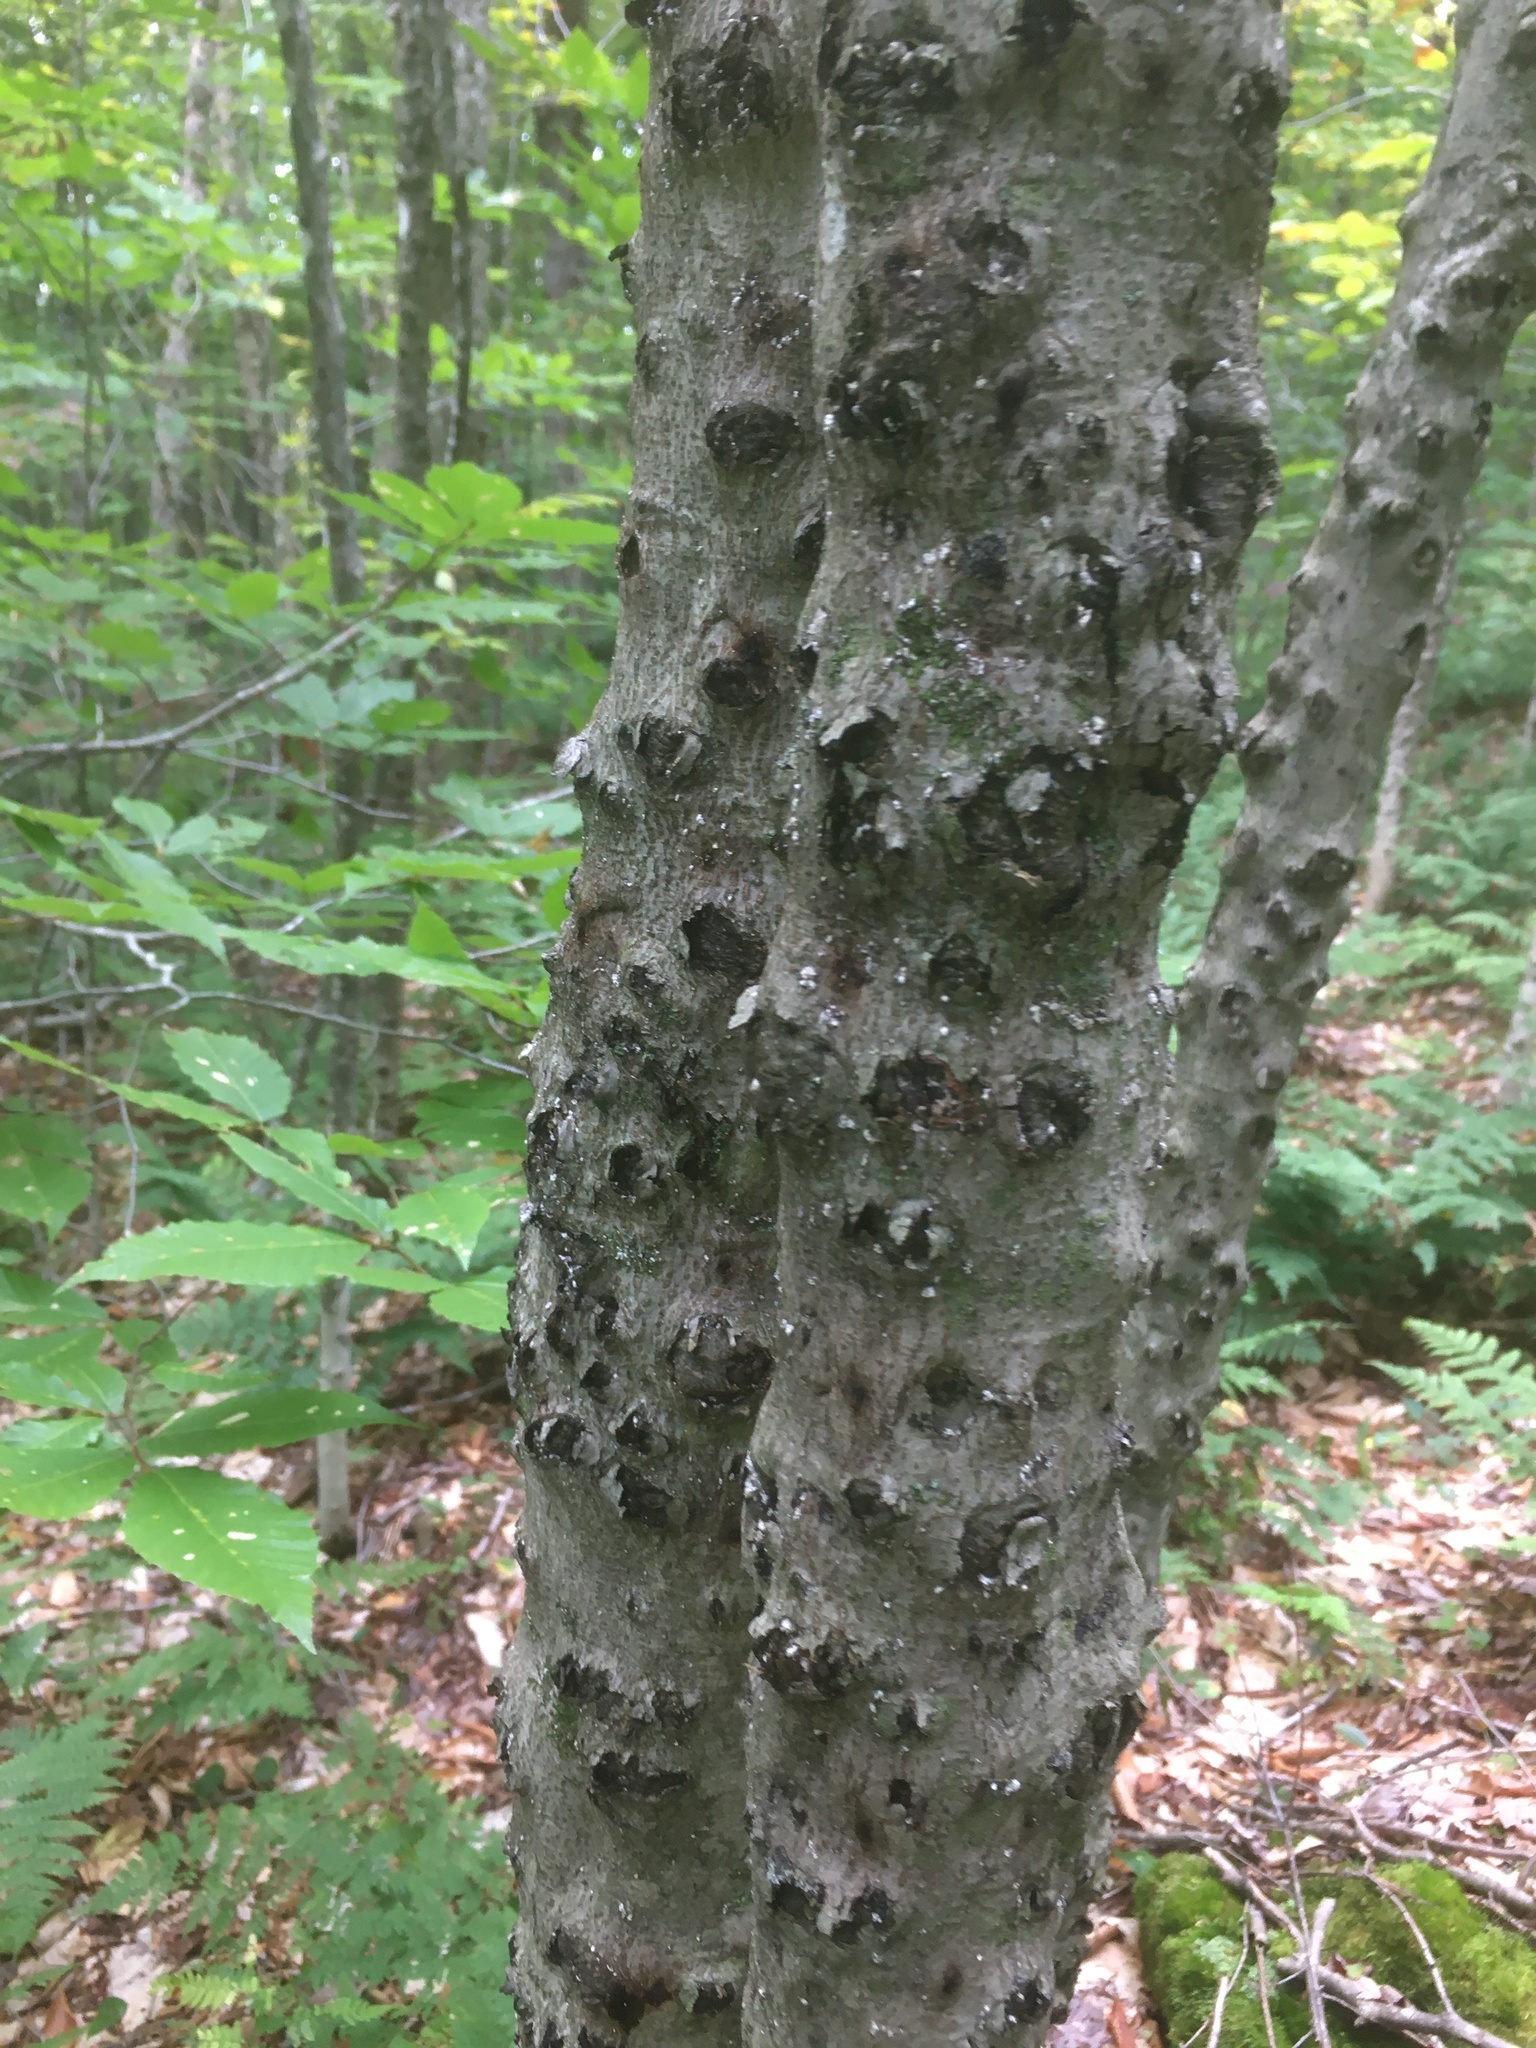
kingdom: Animalia
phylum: Arthropoda
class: Insecta
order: Hemiptera
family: Eriococcidae
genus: Cryptococcus
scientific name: Cryptococcus fagisuga
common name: Beech scale
